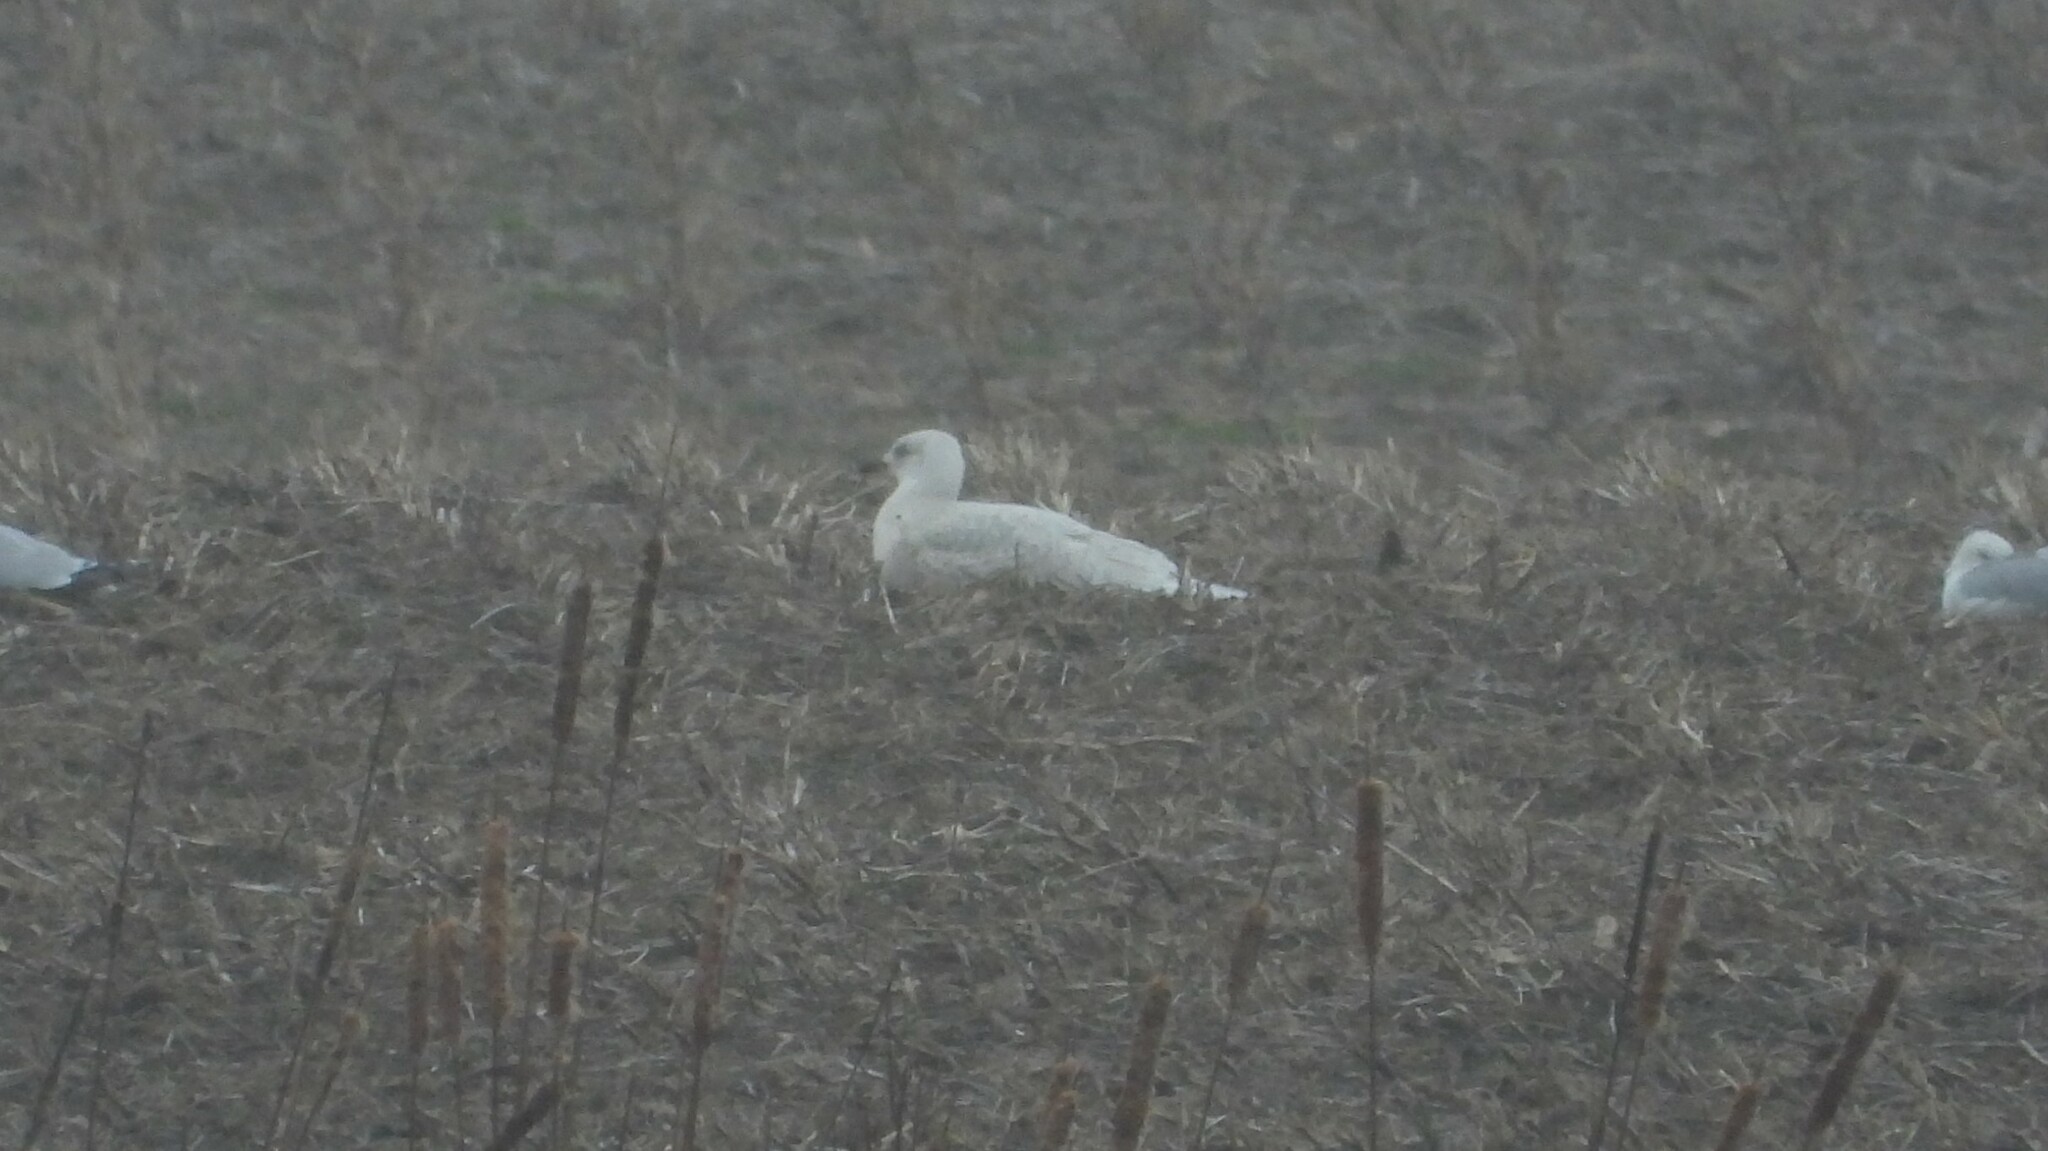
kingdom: Animalia
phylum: Chordata
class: Aves
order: Charadriiformes
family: Laridae
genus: Larus
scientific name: Larus glaucoides
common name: Iceland gull
